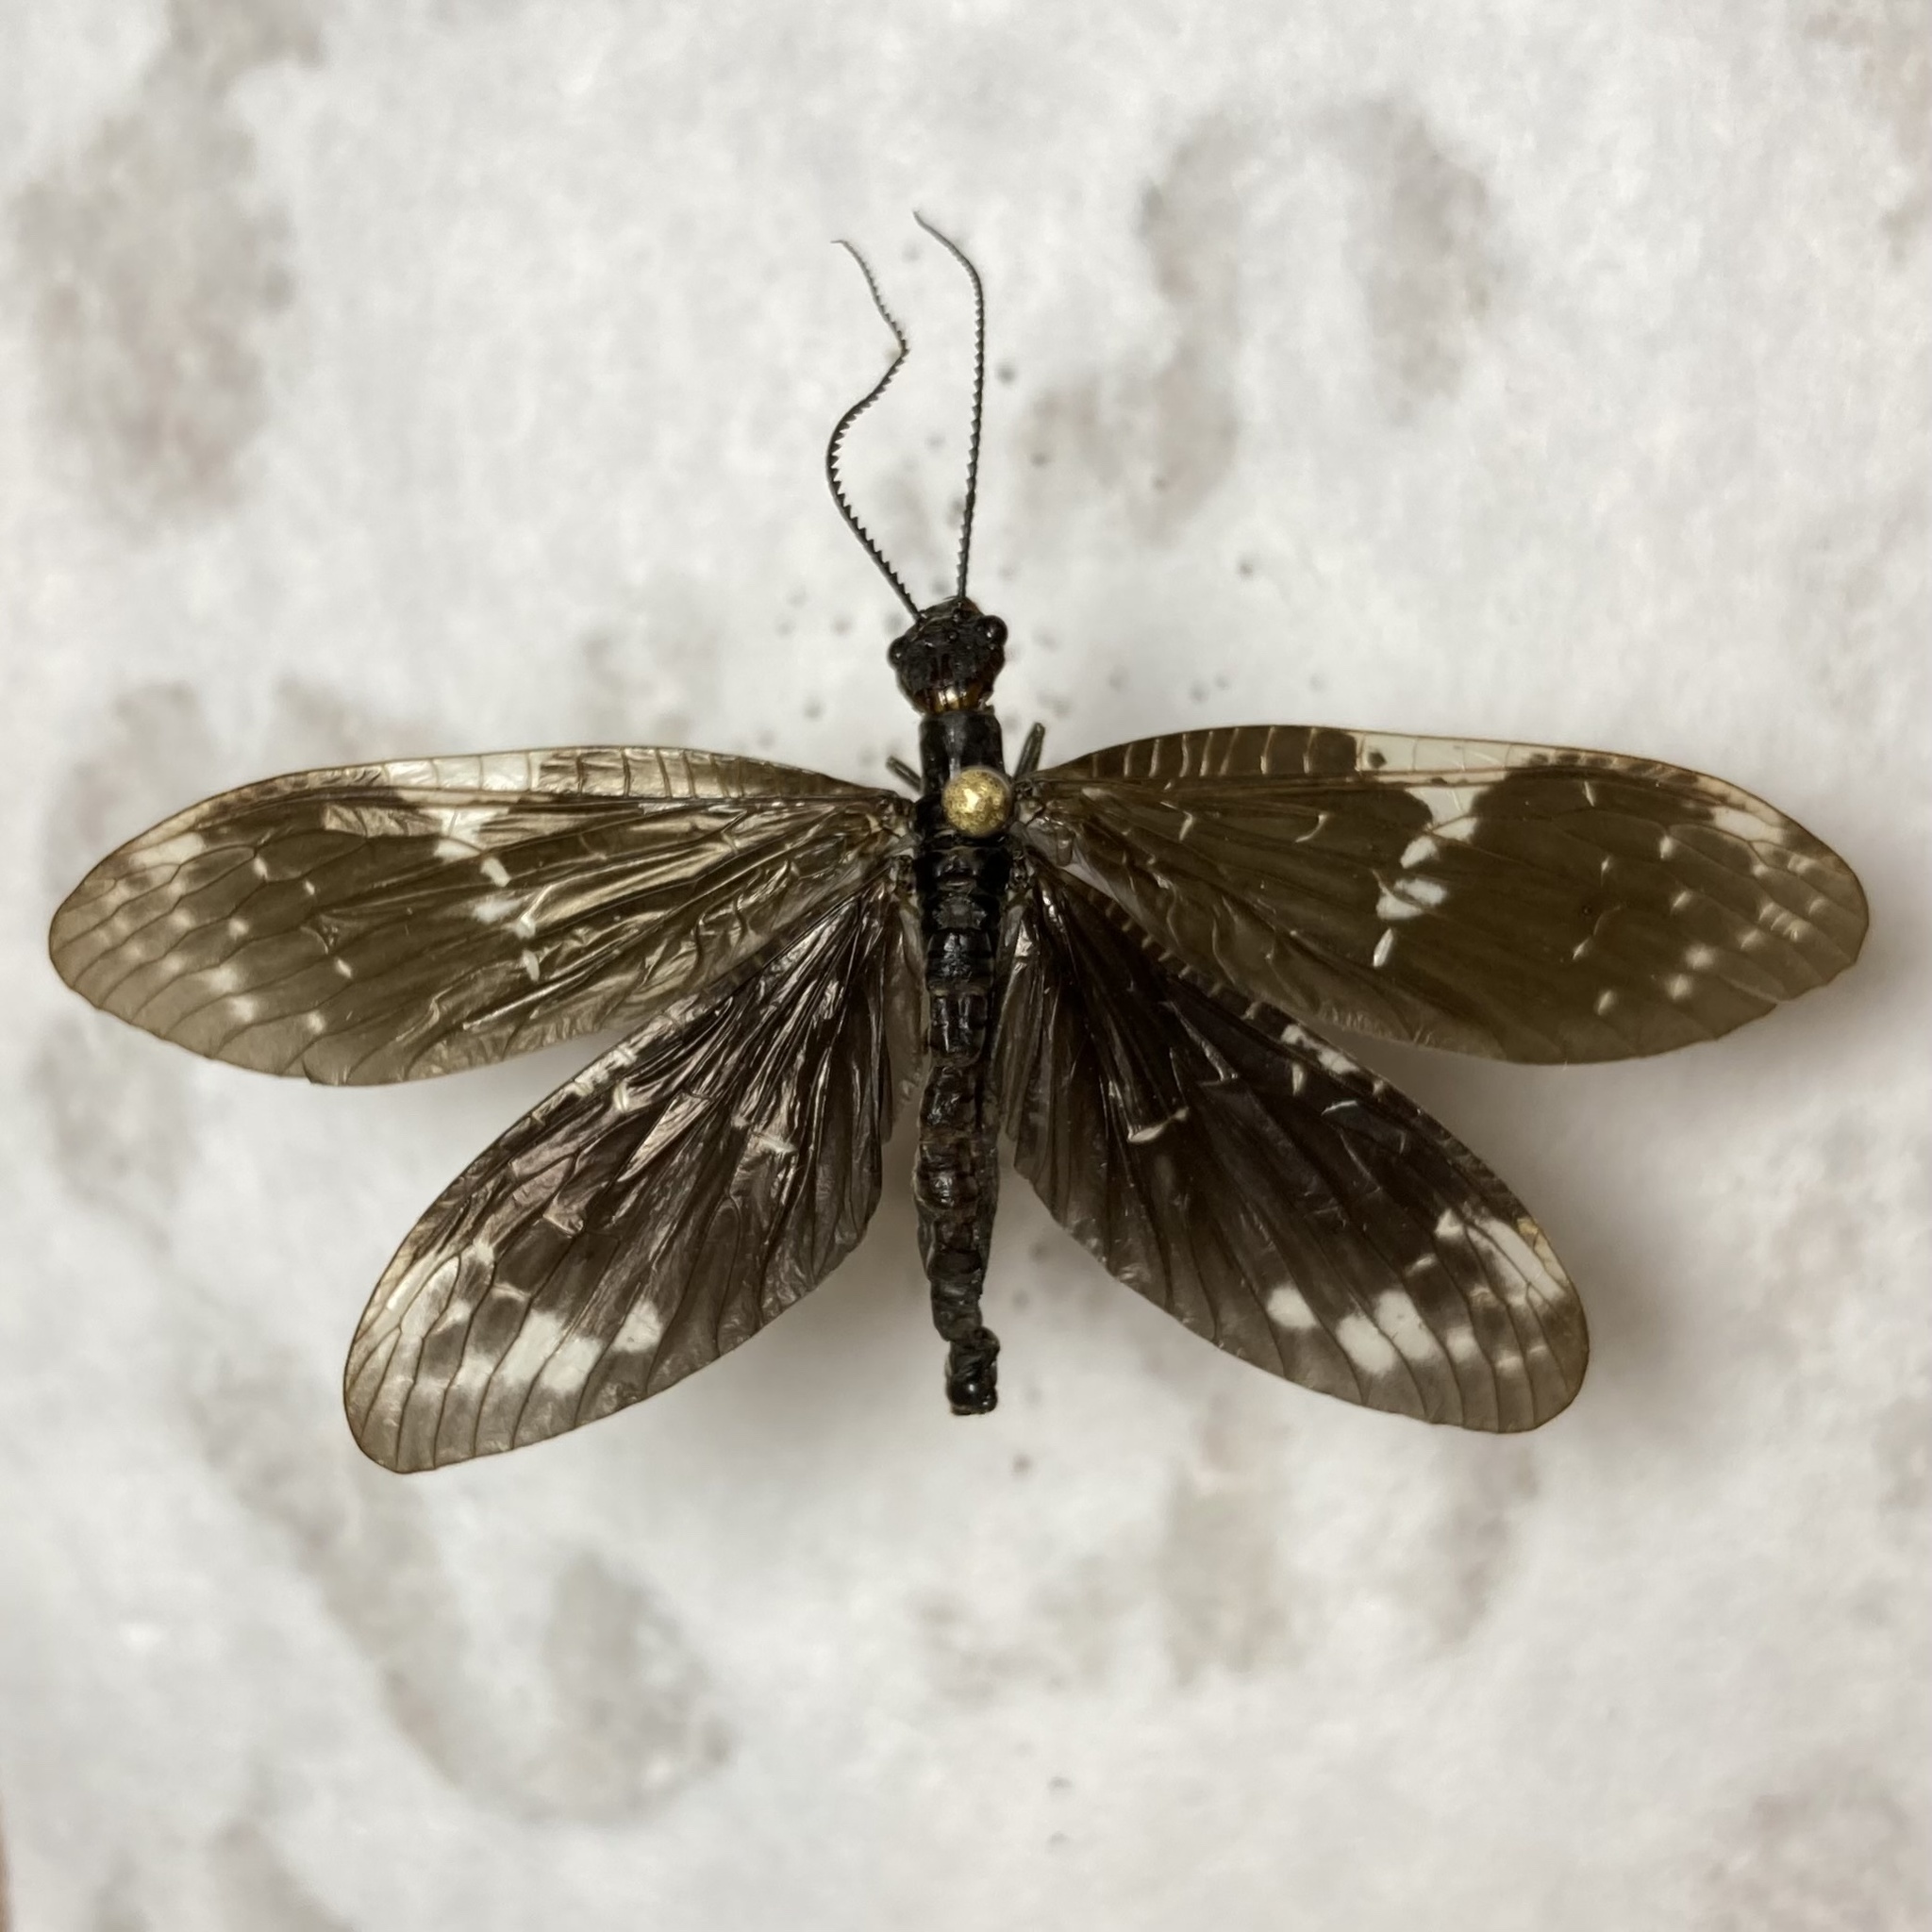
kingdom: Animalia
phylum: Arthropoda
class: Insecta
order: Megaloptera
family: Corydalidae
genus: Nigronia
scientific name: Nigronia serricornis
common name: Serrate dark fishfly
